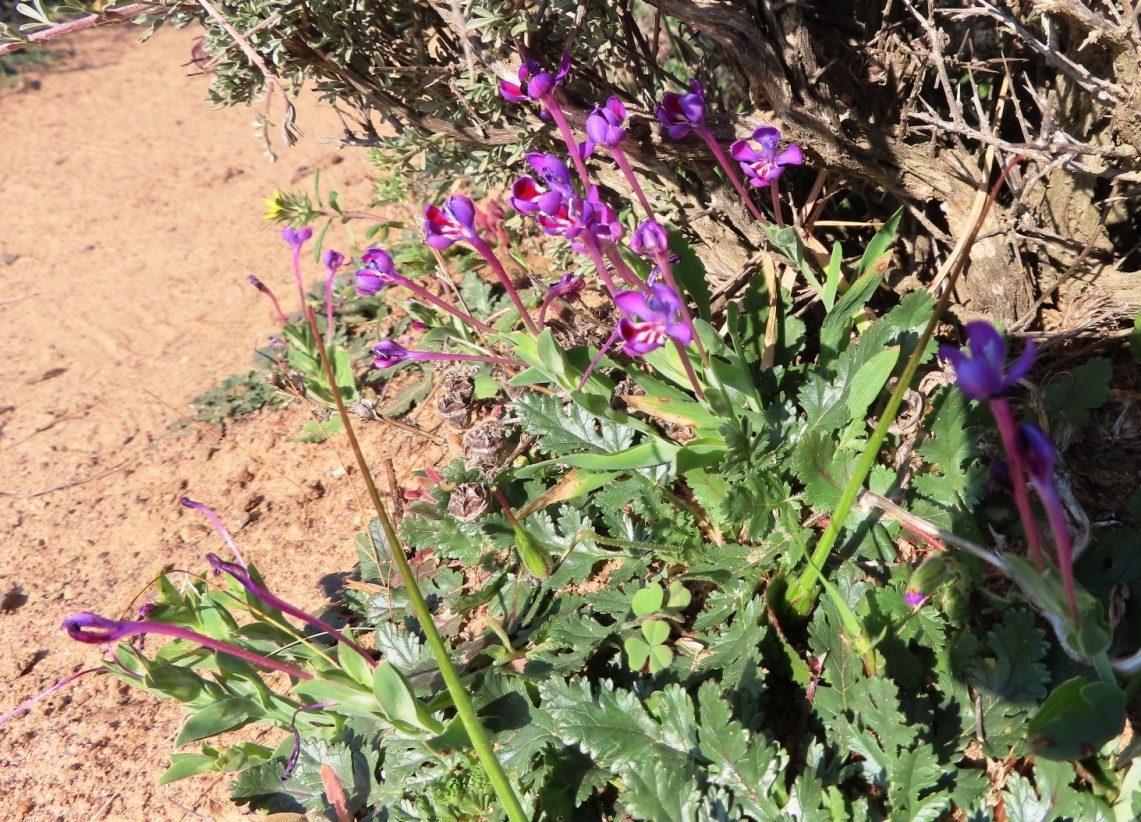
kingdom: Plantae
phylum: Tracheophyta
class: Liliopsida
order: Asparagales
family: Iridaceae
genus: Lapeirousia
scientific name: Lapeirousia jacquinii
